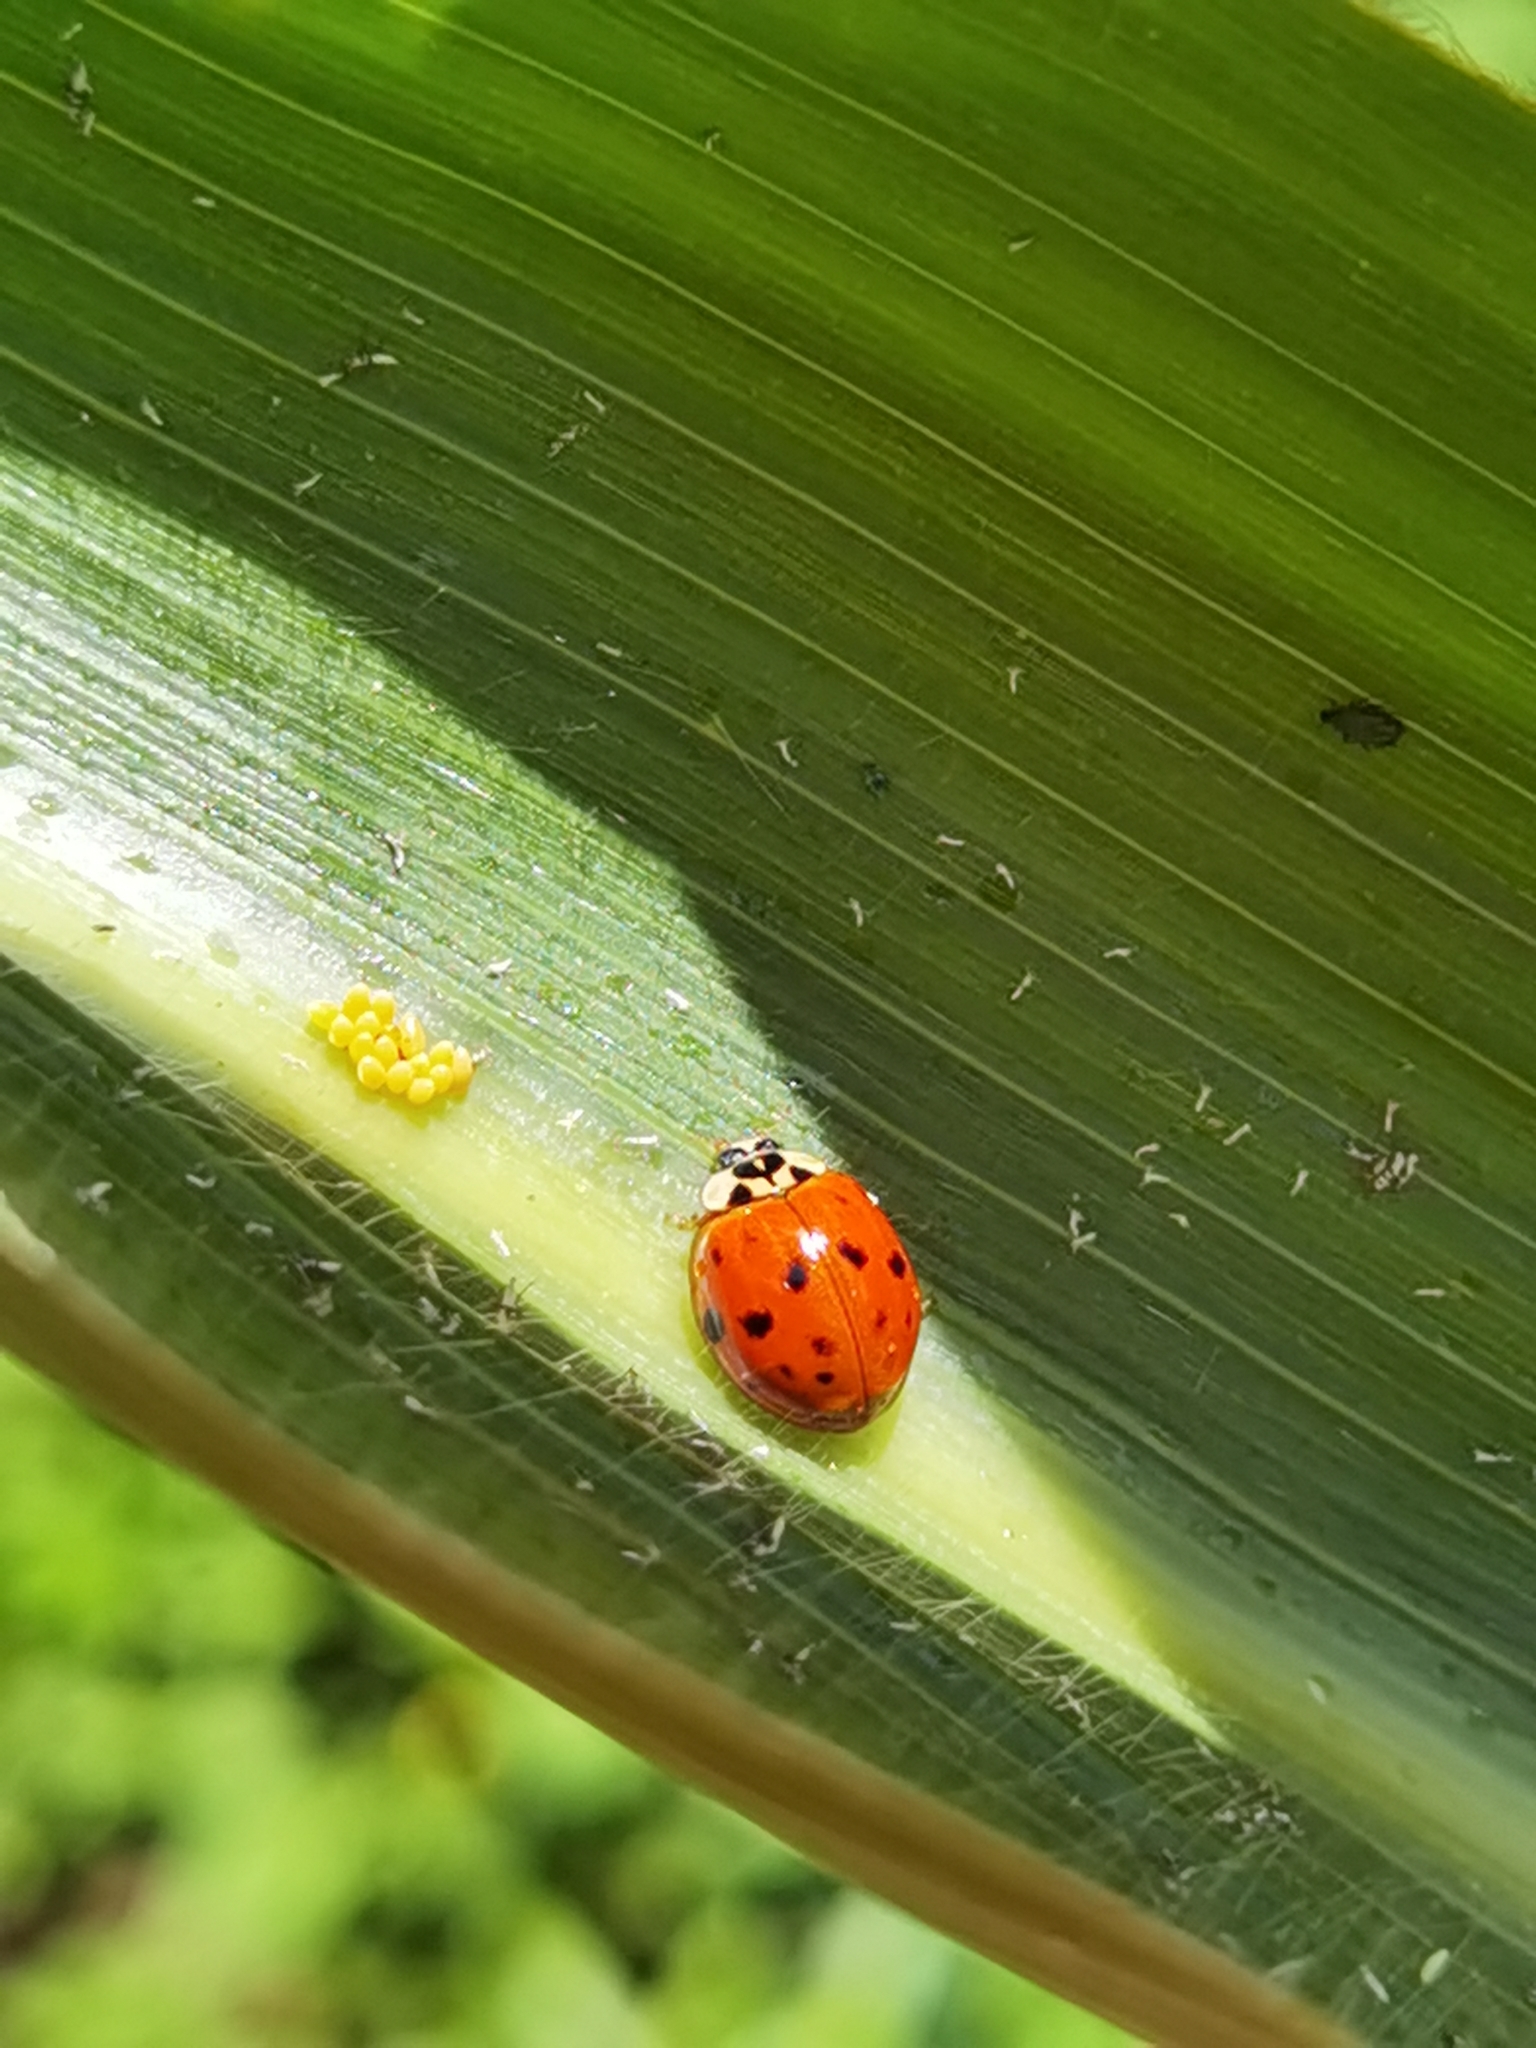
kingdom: Animalia
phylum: Arthropoda
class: Insecta
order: Coleoptera
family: Coccinellidae
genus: Harmonia
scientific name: Harmonia axyridis
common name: Harlequin ladybird
